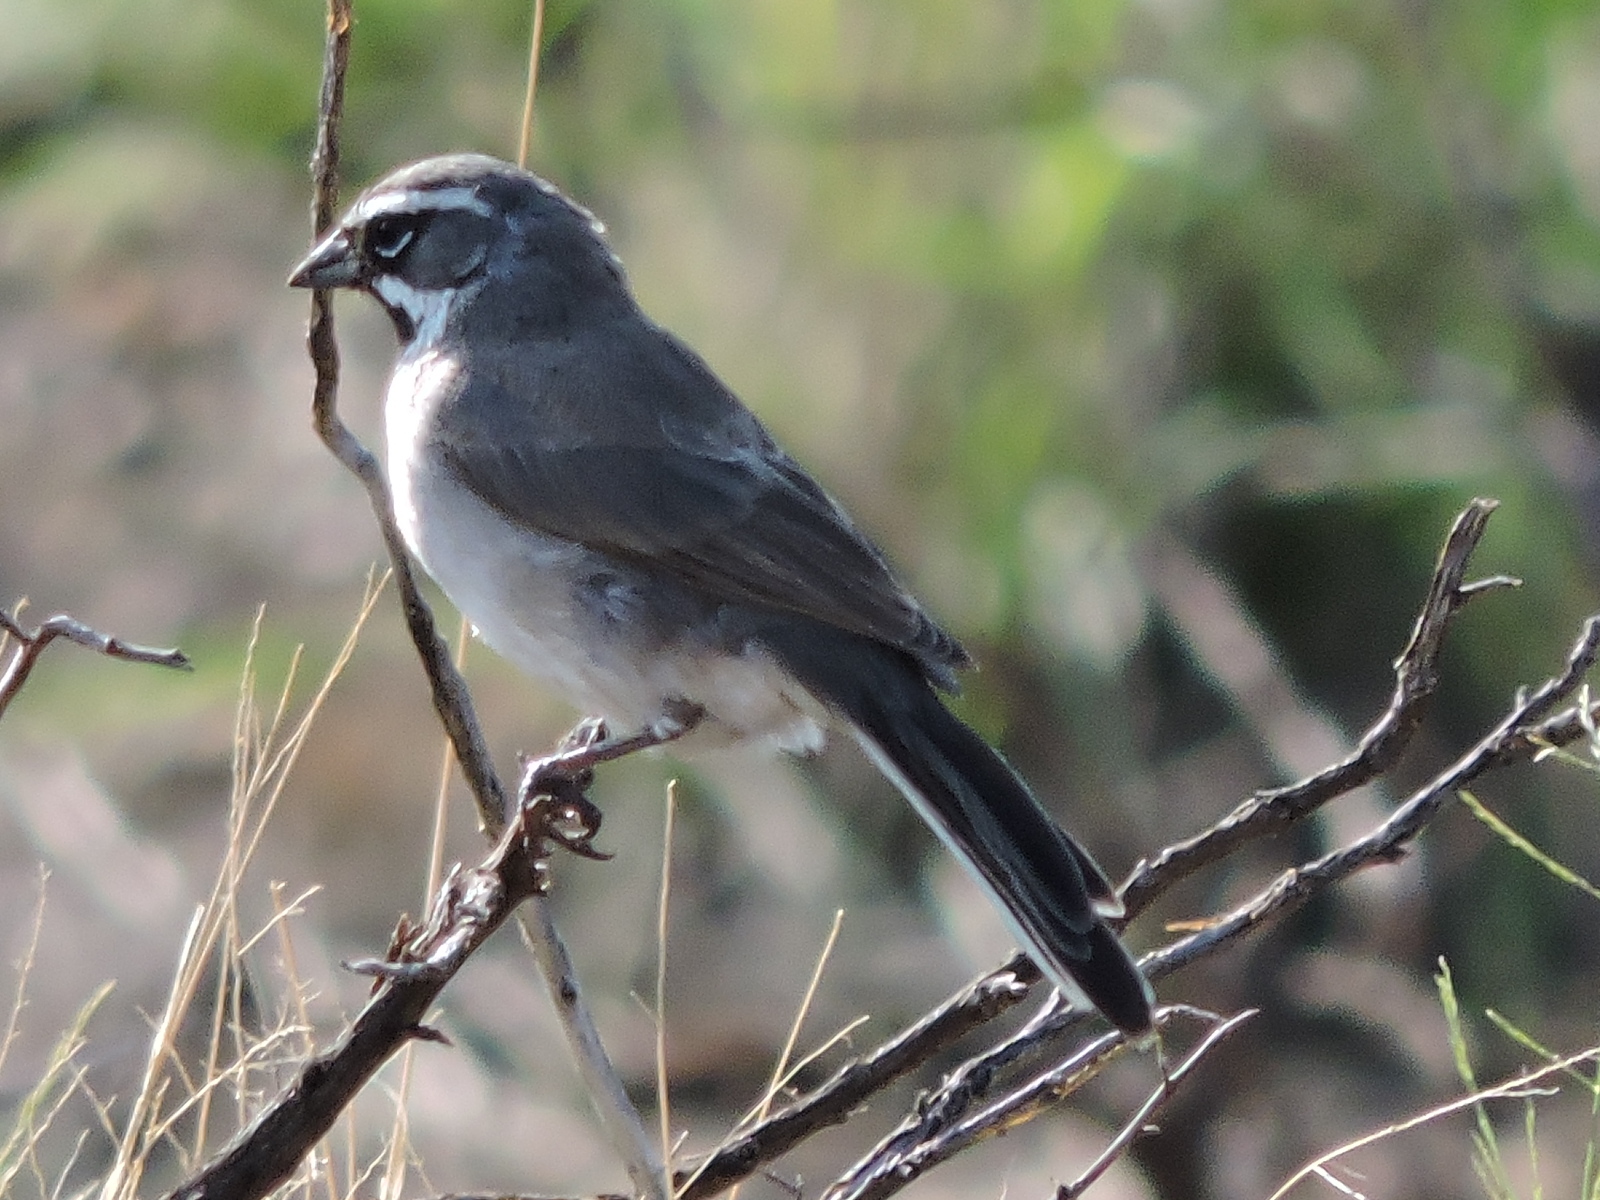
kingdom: Animalia
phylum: Chordata
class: Aves
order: Passeriformes
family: Passerellidae
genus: Amphispiza
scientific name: Amphispiza bilineata
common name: Black-throated sparrow
